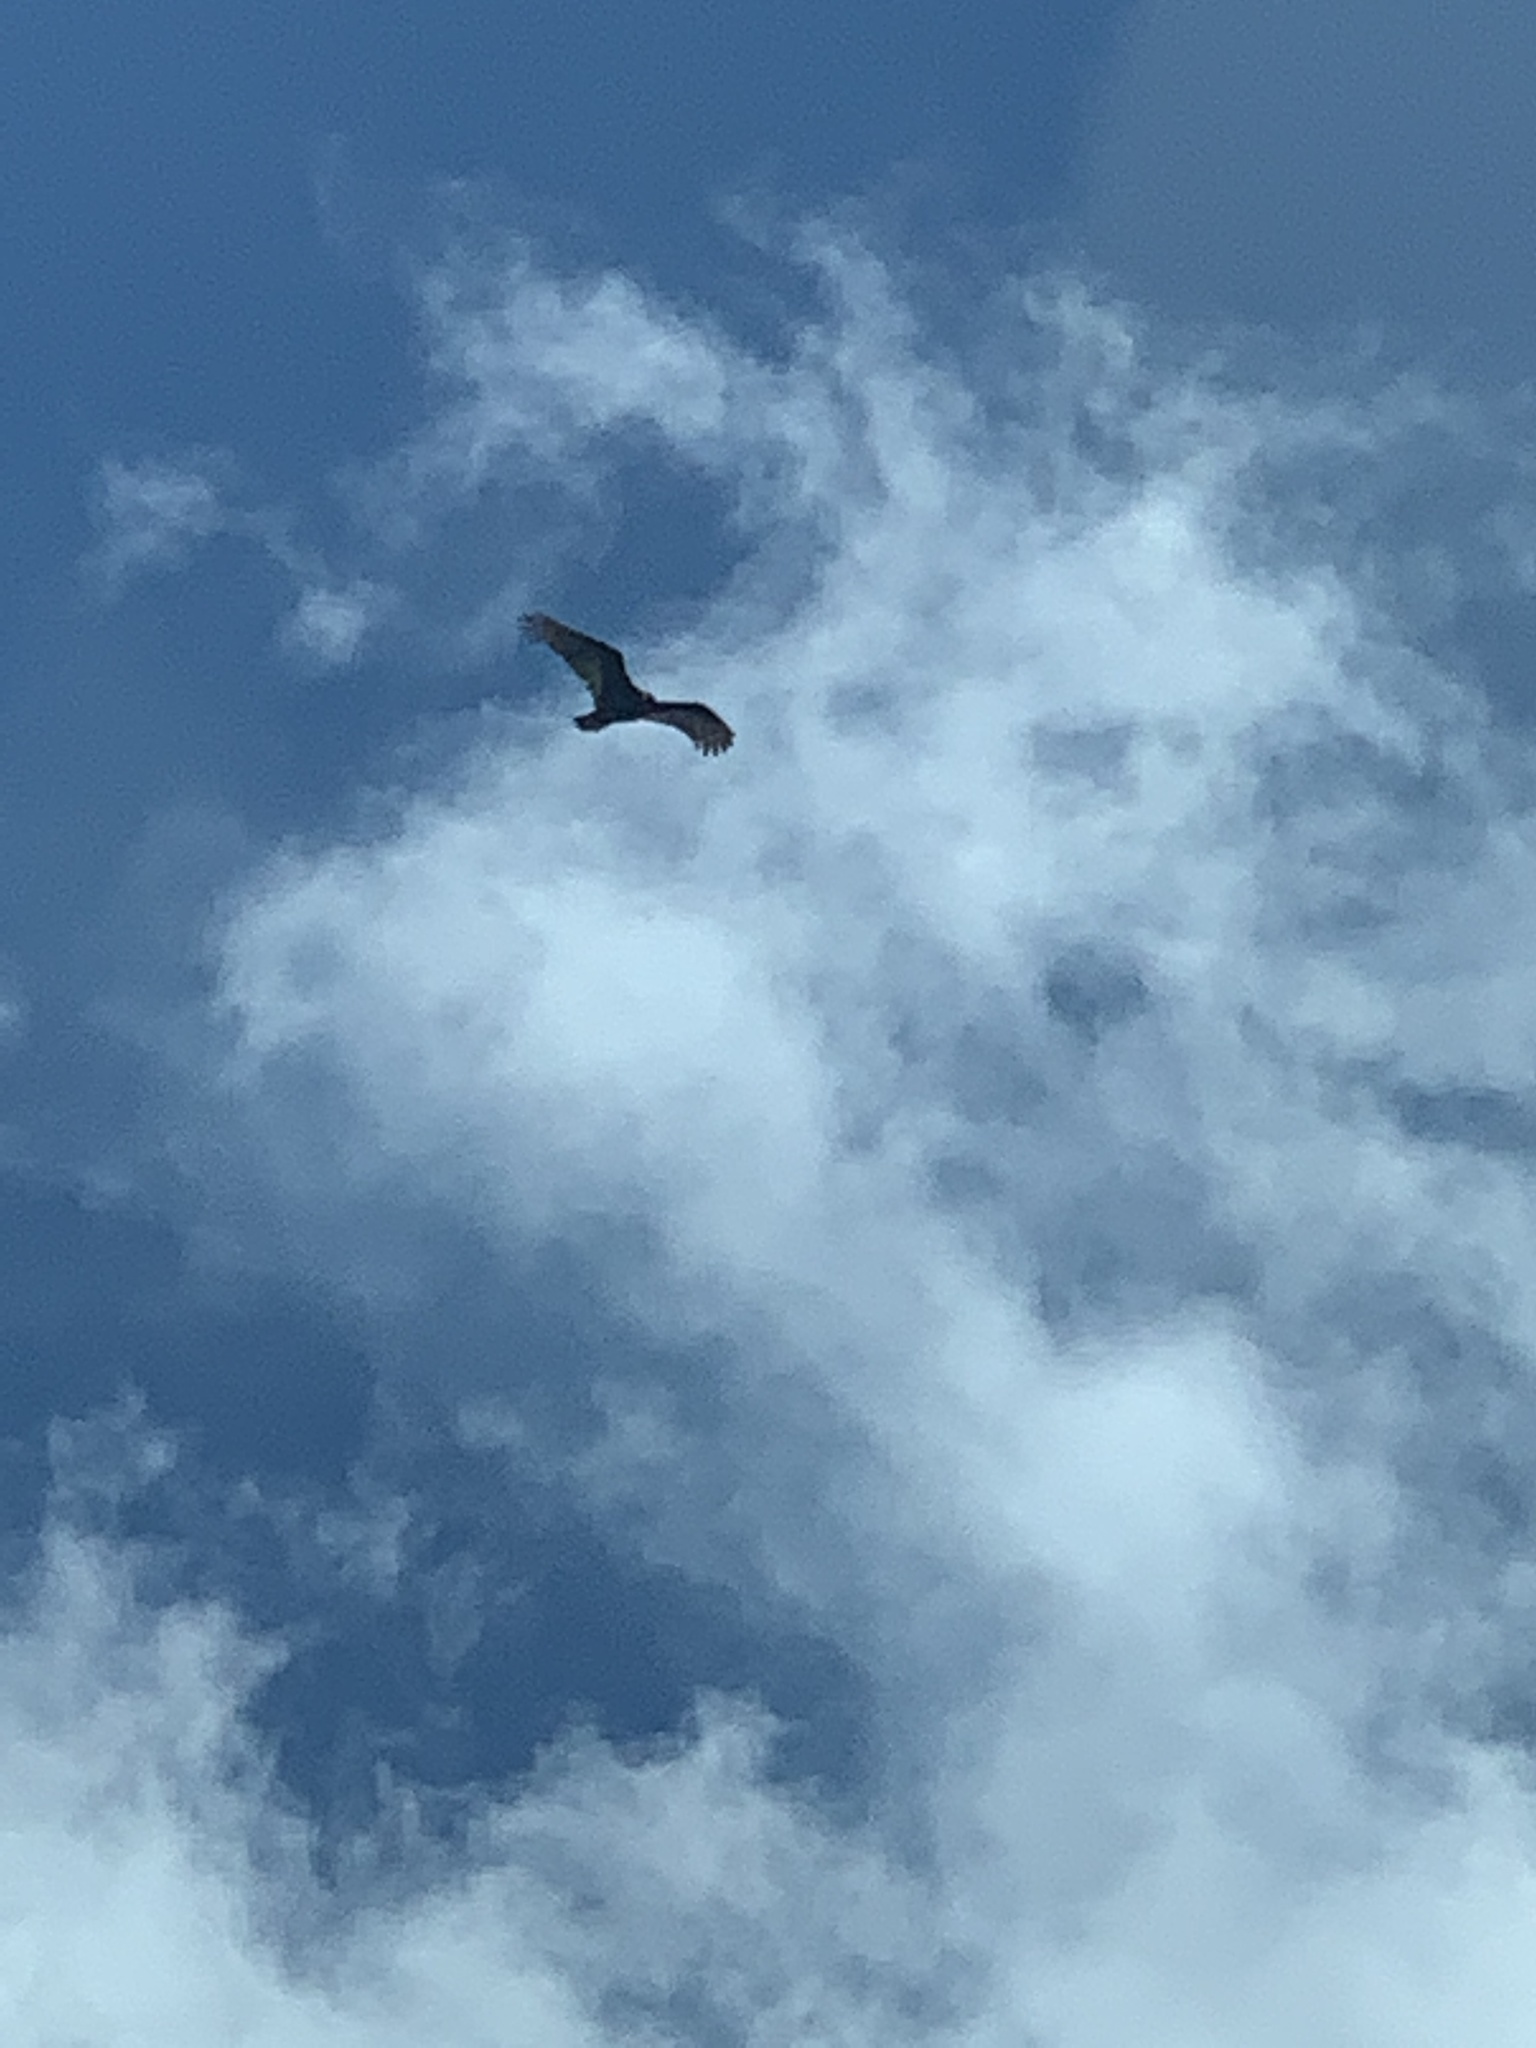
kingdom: Animalia
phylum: Chordata
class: Aves
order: Accipitriformes
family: Cathartidae
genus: Cathartes
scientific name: Cathartes aura
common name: Turkey vulture
